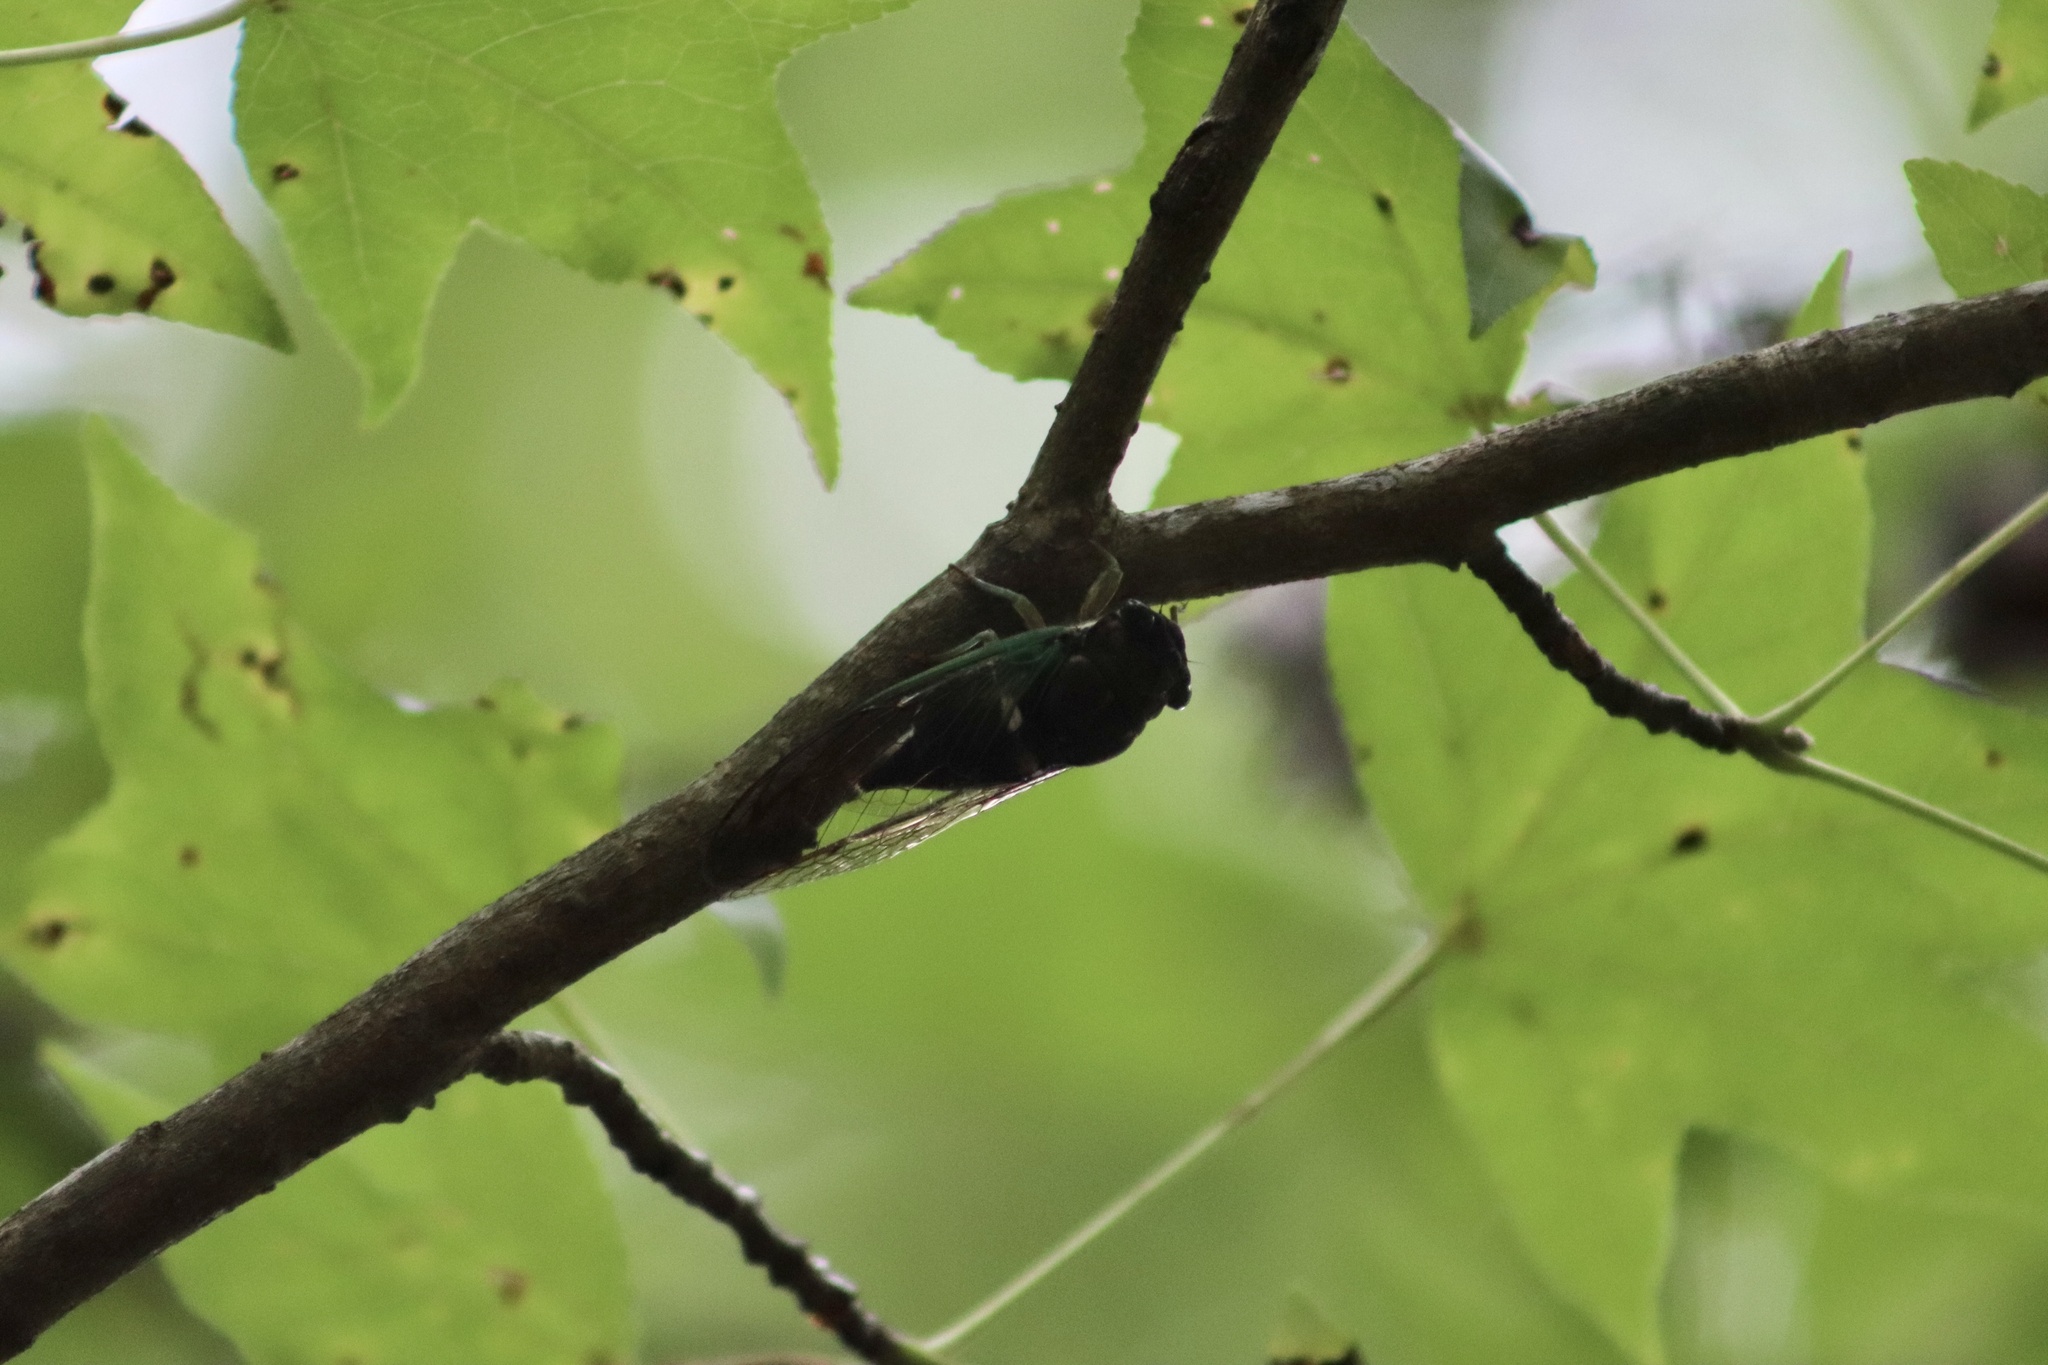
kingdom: Animalia
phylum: Arthropoda
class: Insecta
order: Hemiptera
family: Cicadidae
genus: Neotibicen
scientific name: Neotibicen tibicen
